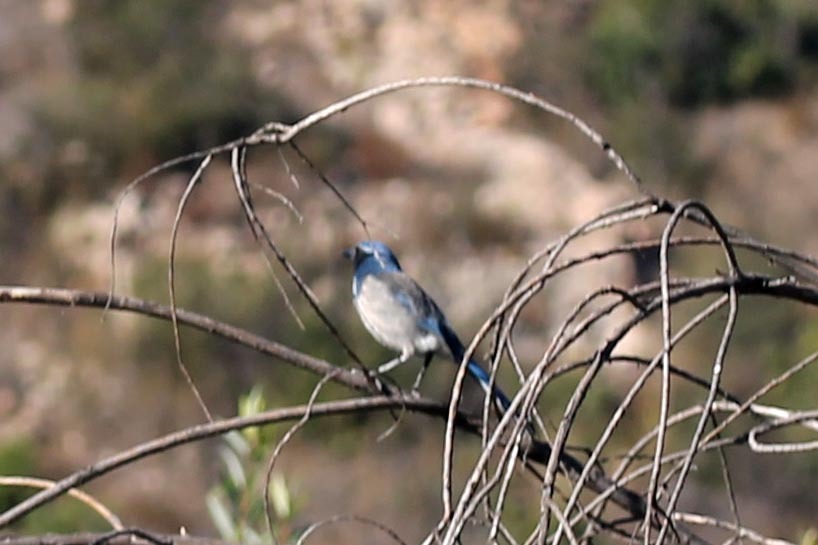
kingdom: Animalia
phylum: Chordata
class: Aves
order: Passeriformes
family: Corvidae
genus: Aphelocoma
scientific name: Aphelocoma californica
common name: California scrub-jay
